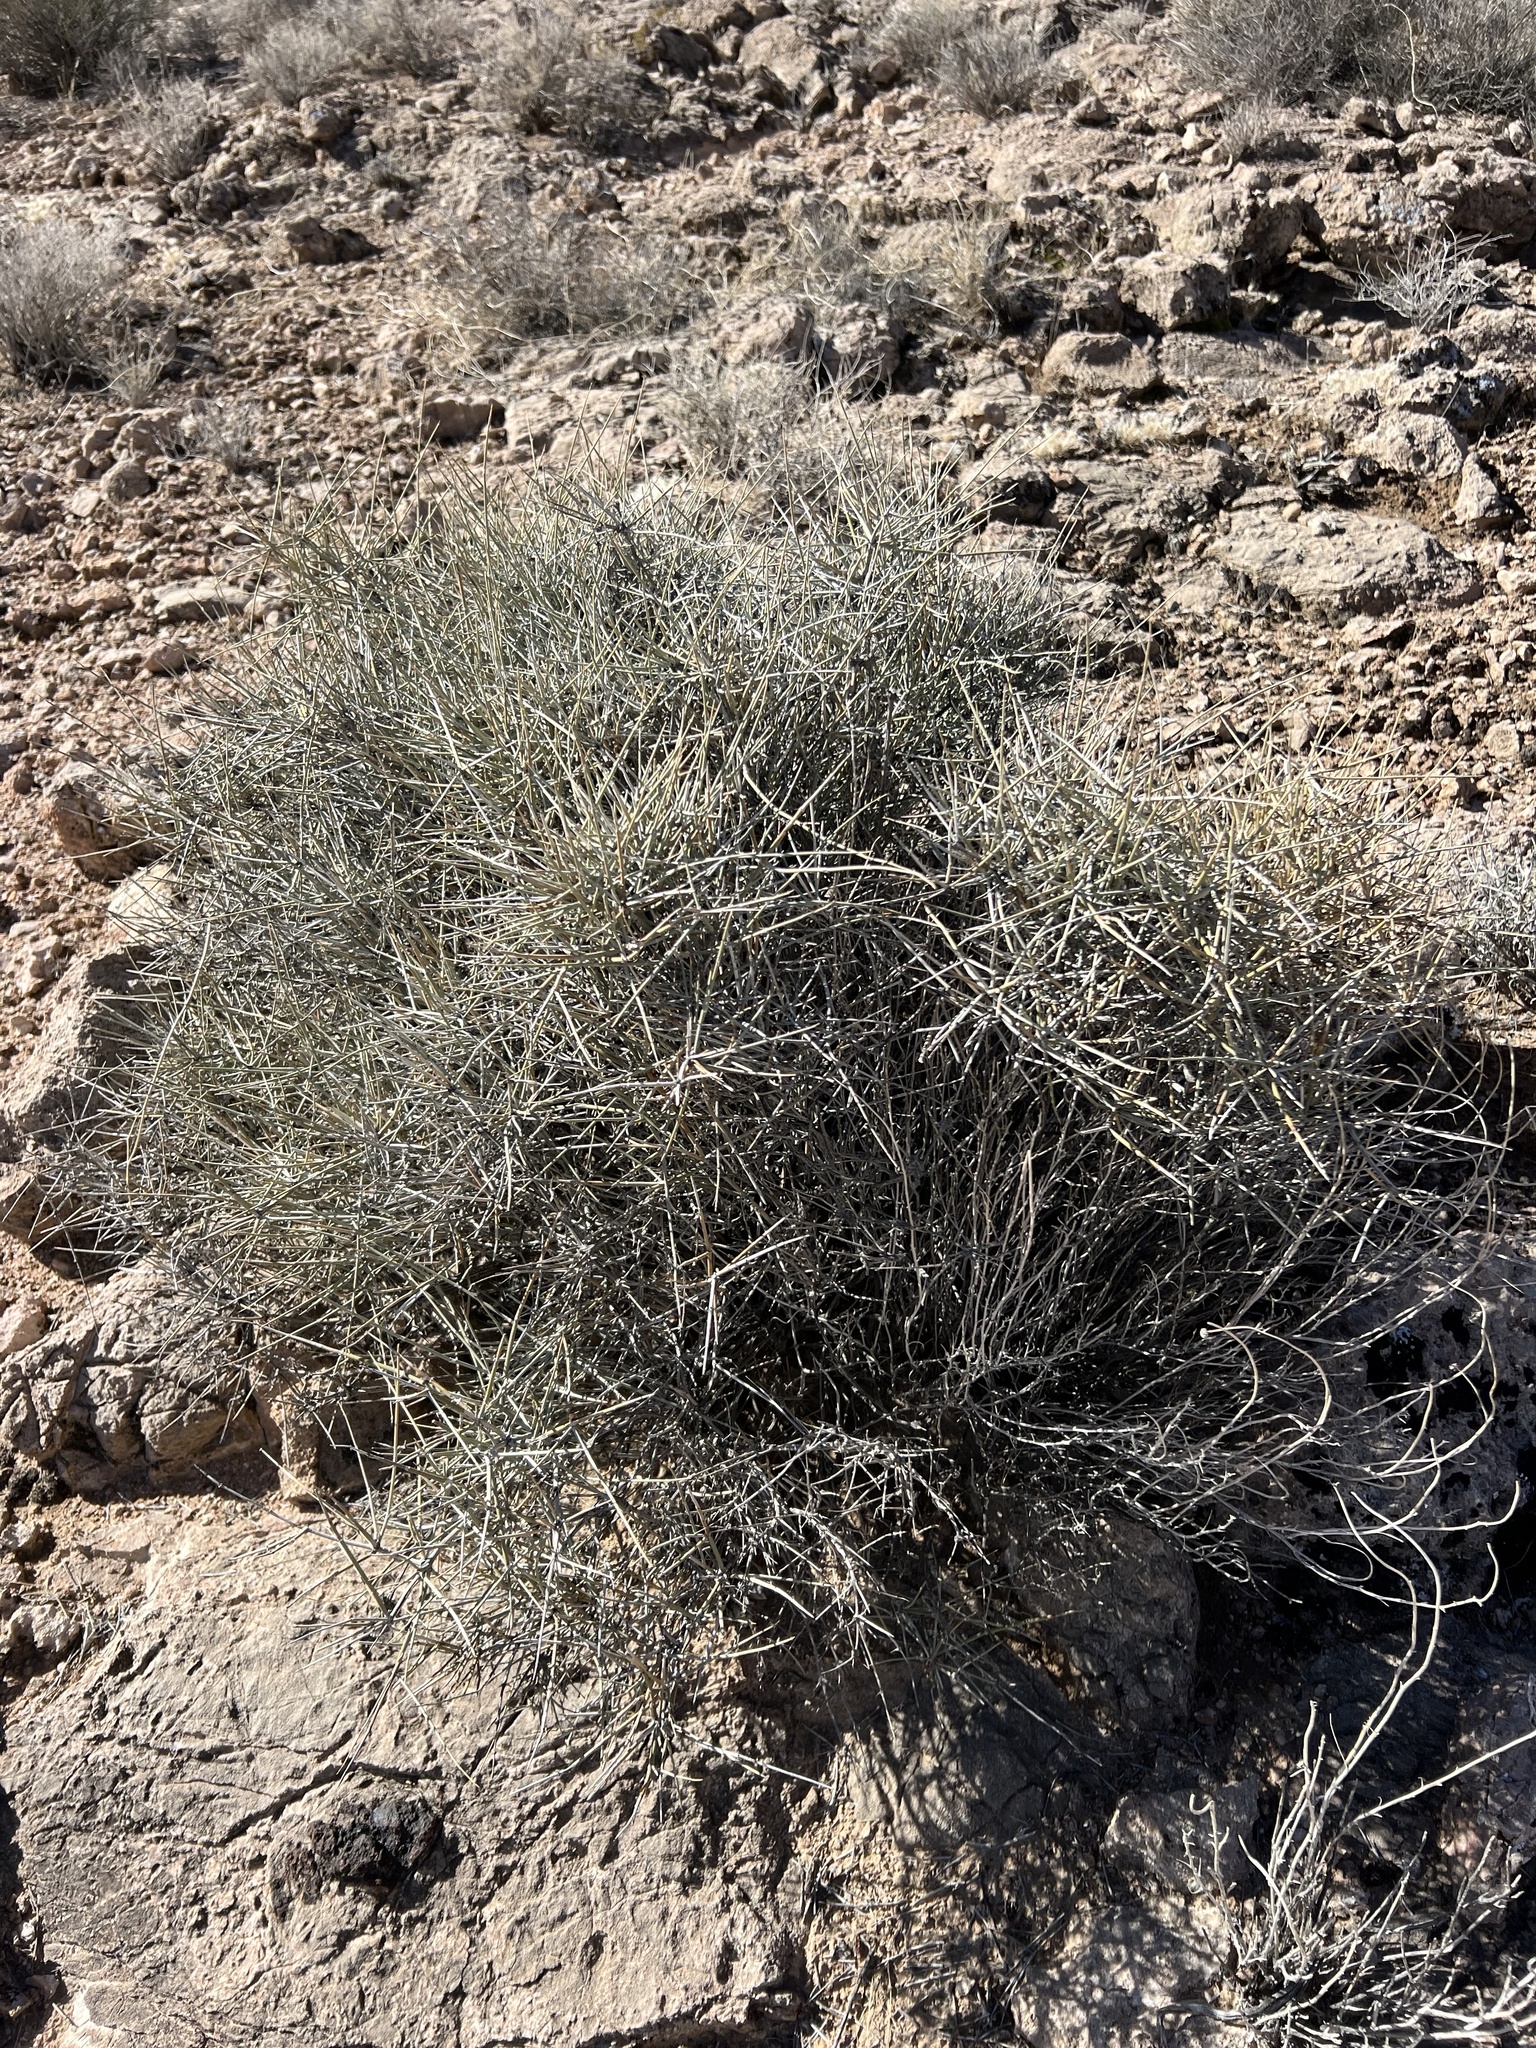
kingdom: Plantae
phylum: Tracheophyta
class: Gnetopsida
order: Ephedrales
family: Ephedraceae
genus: Ephedra
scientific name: Ephedra nevadensis
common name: Gray ephedra
